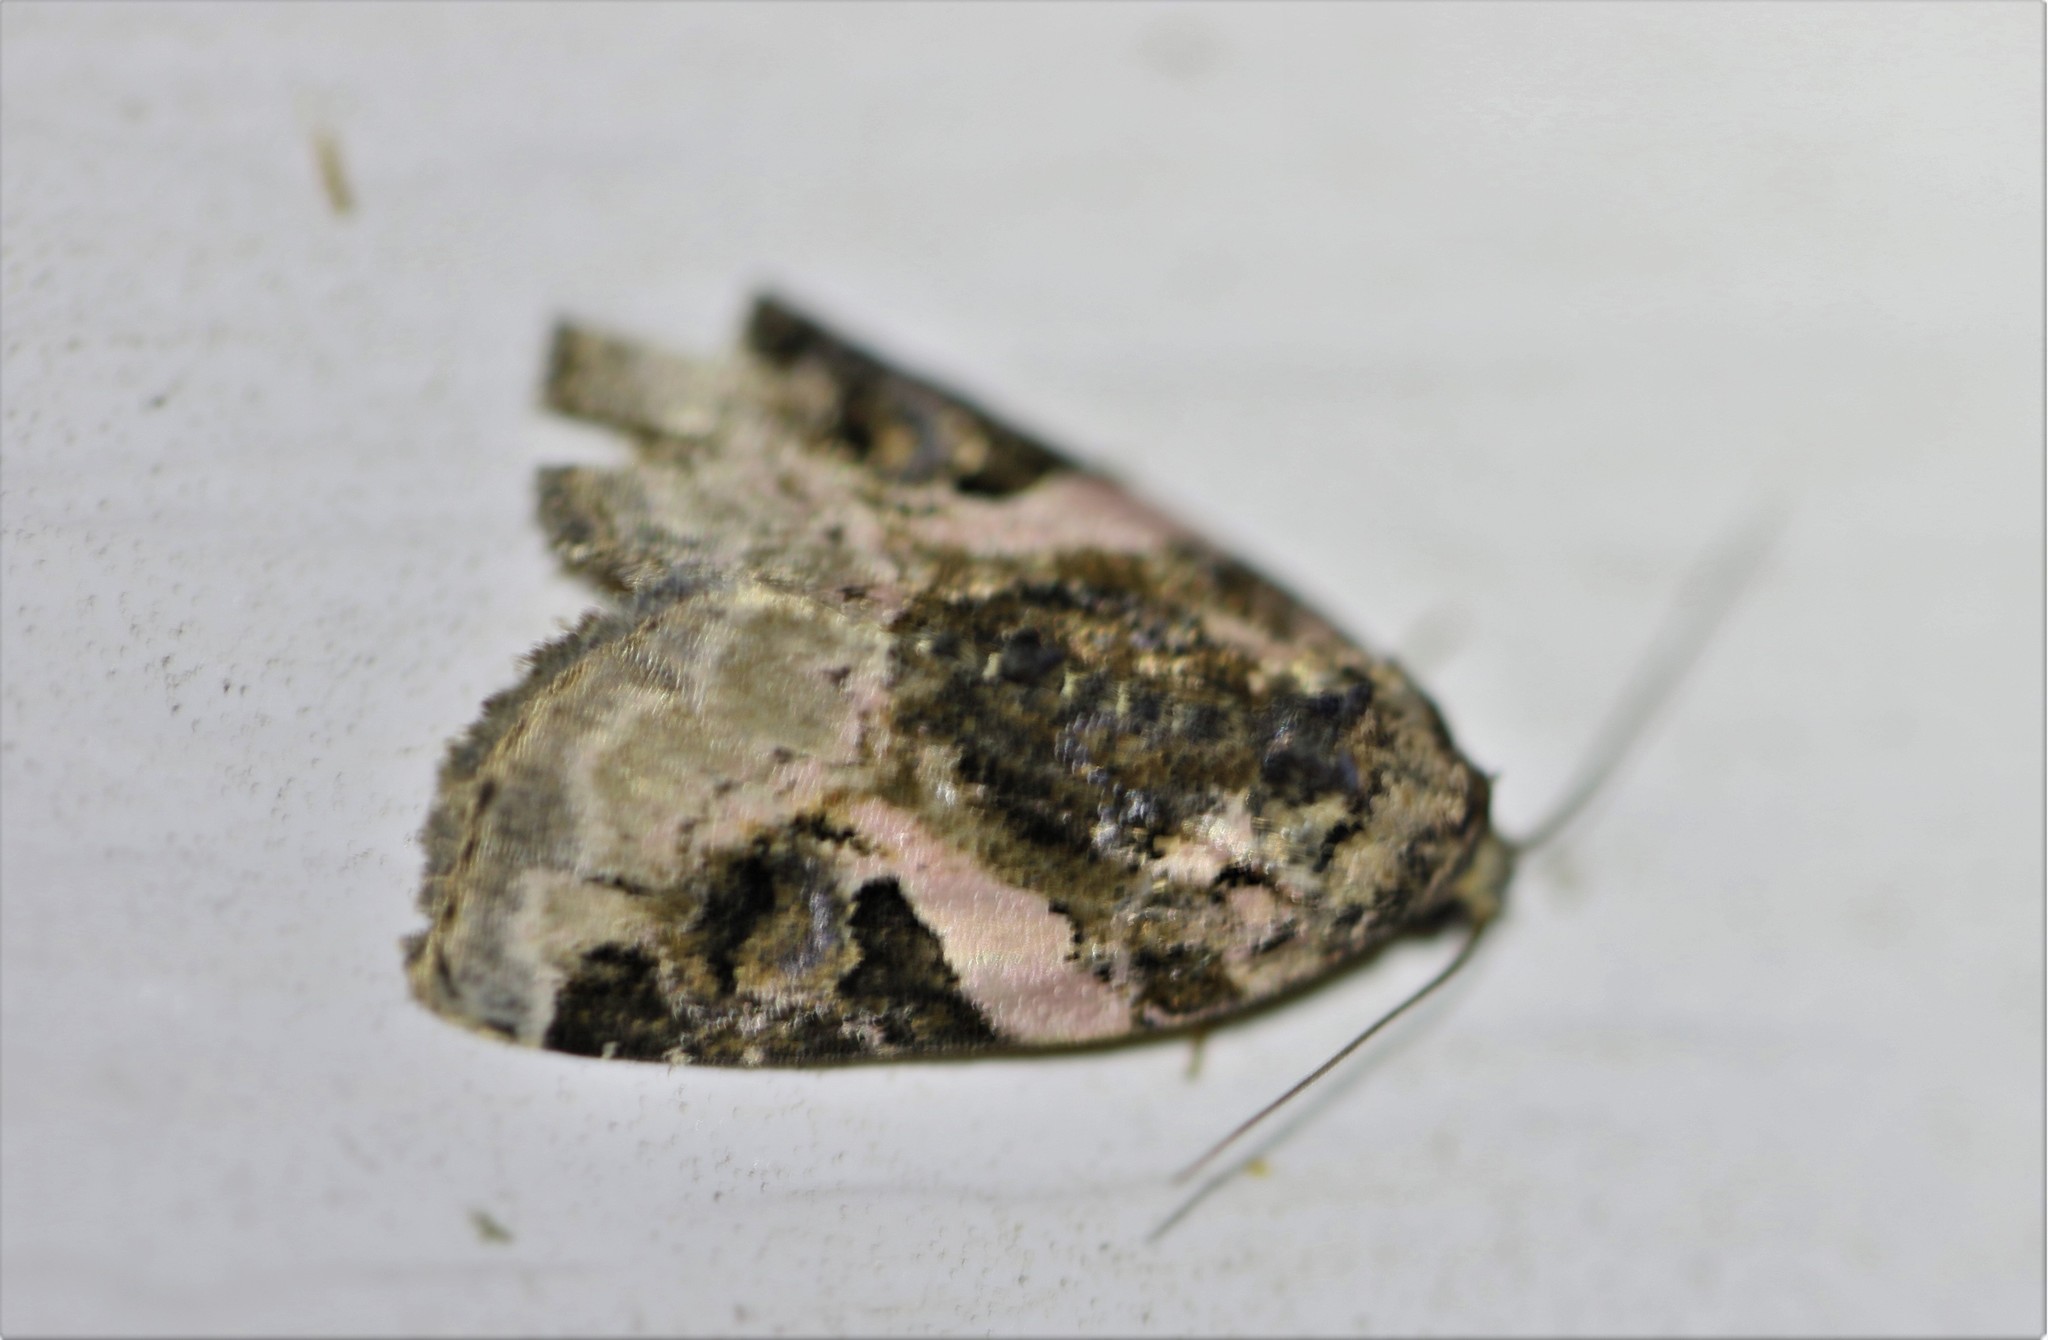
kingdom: Animalia
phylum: Arthropoda
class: Insecta
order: Lepidoptera
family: Noctuidae
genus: Pseudeustrotia
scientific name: Pseudeustrotia carneola
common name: Pink-barred lithacodia moth
